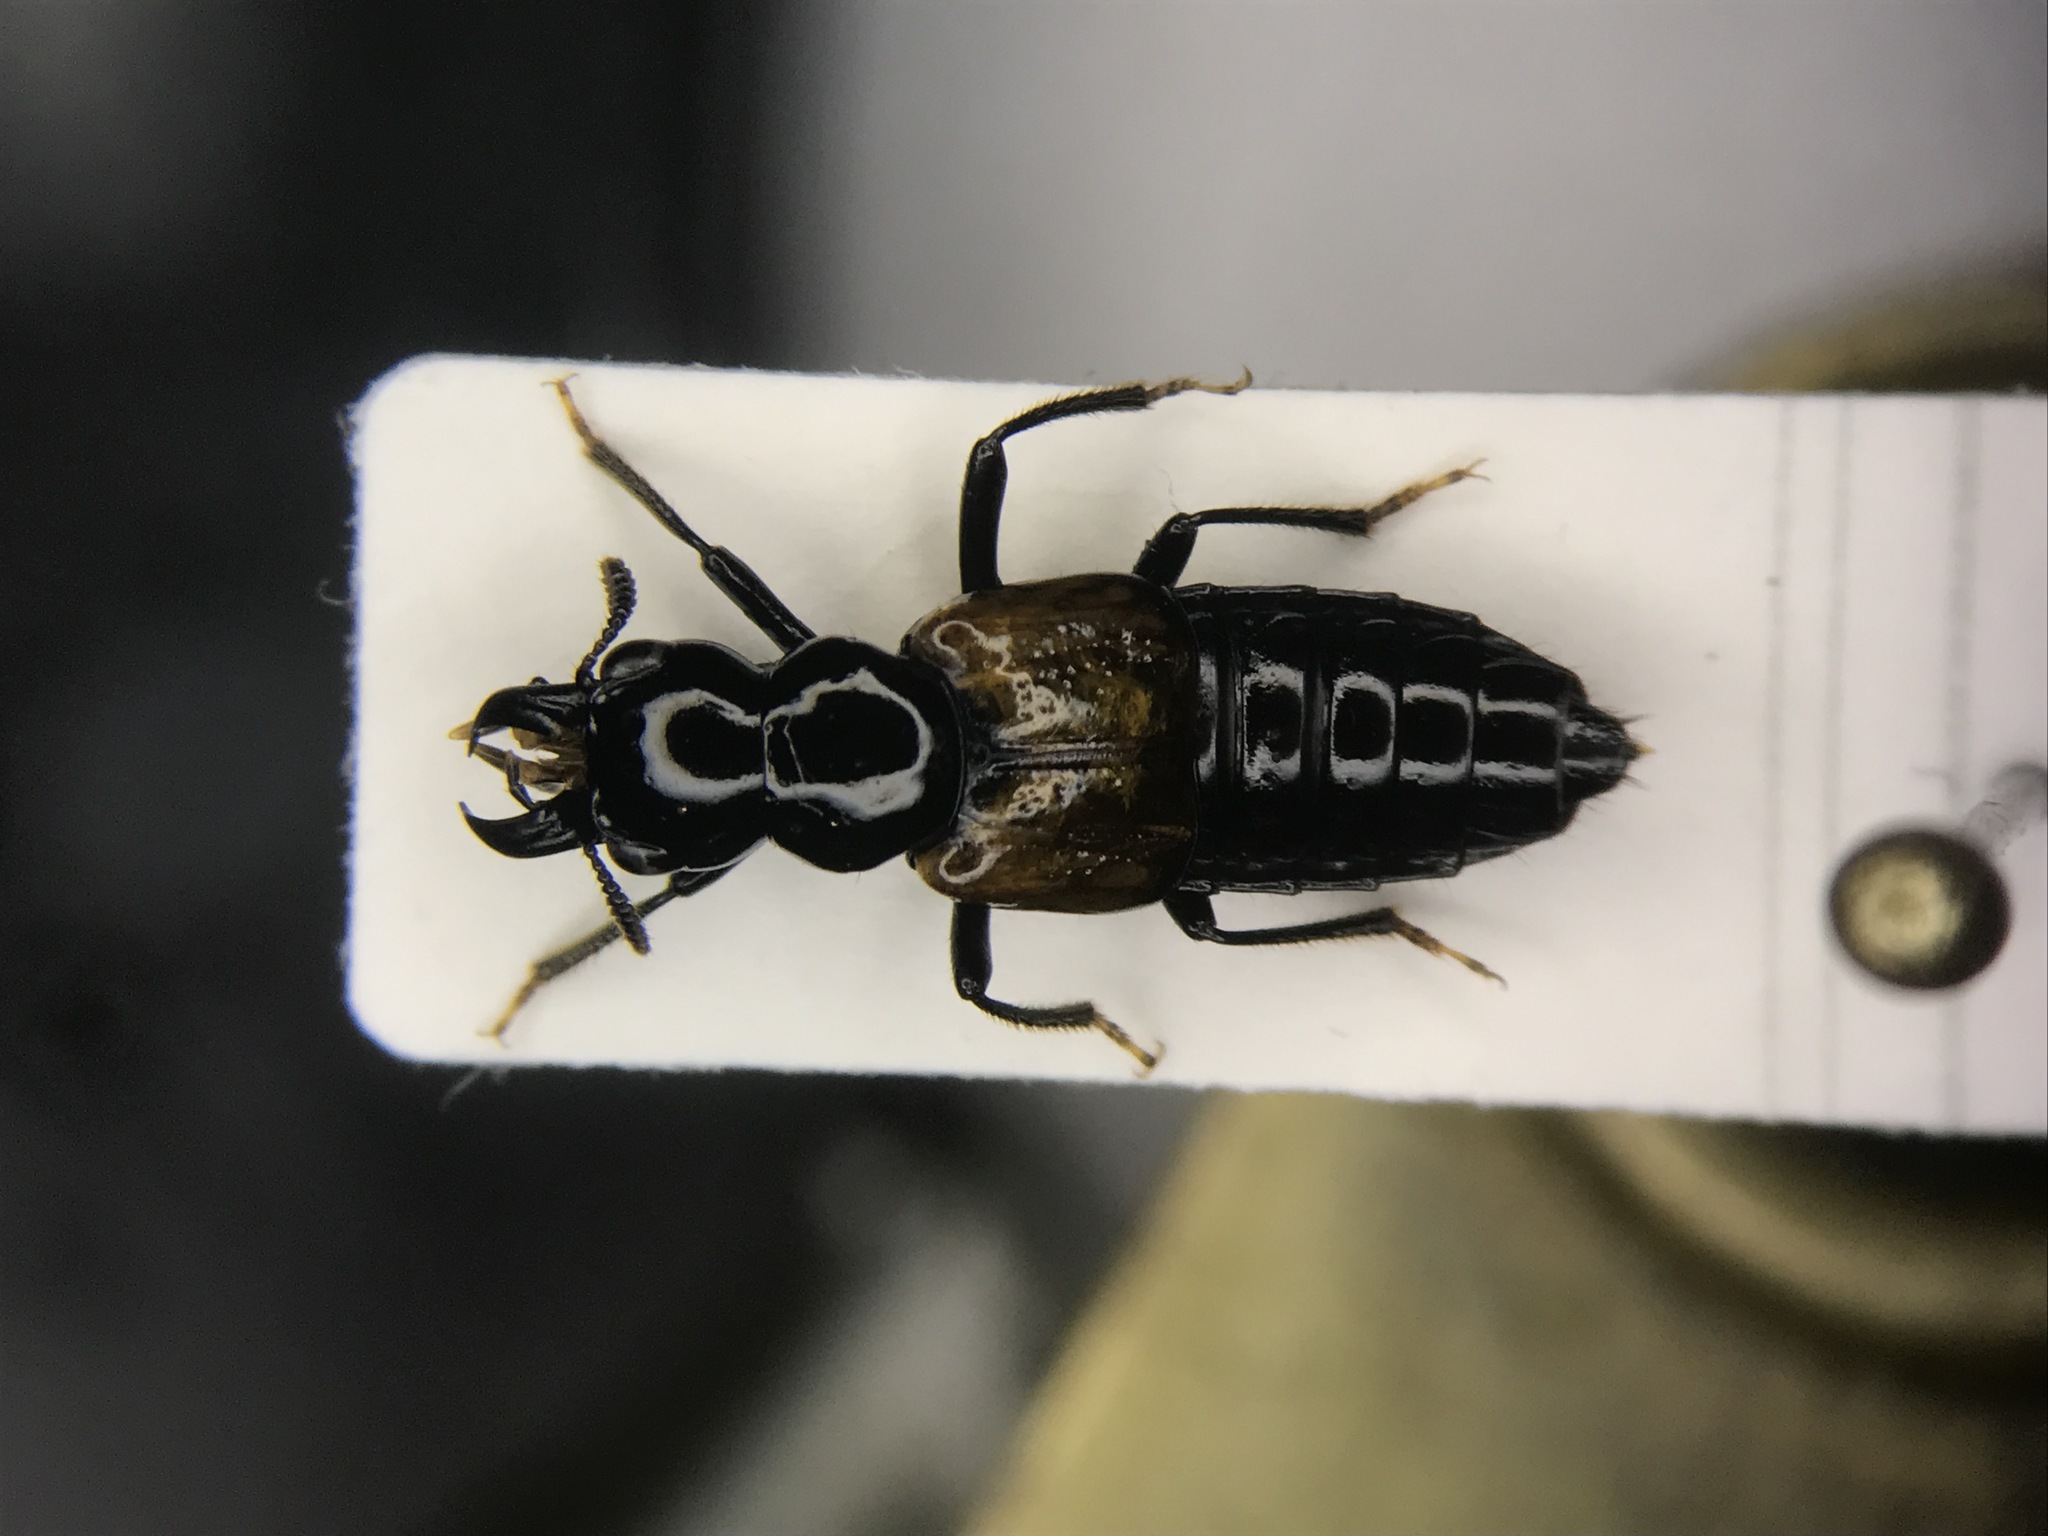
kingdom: Animalia
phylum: Arthropoda
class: Insecta
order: Coleoptera
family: Staphylinidae
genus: Oxyporus
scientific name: Oxyporus rufipennis
